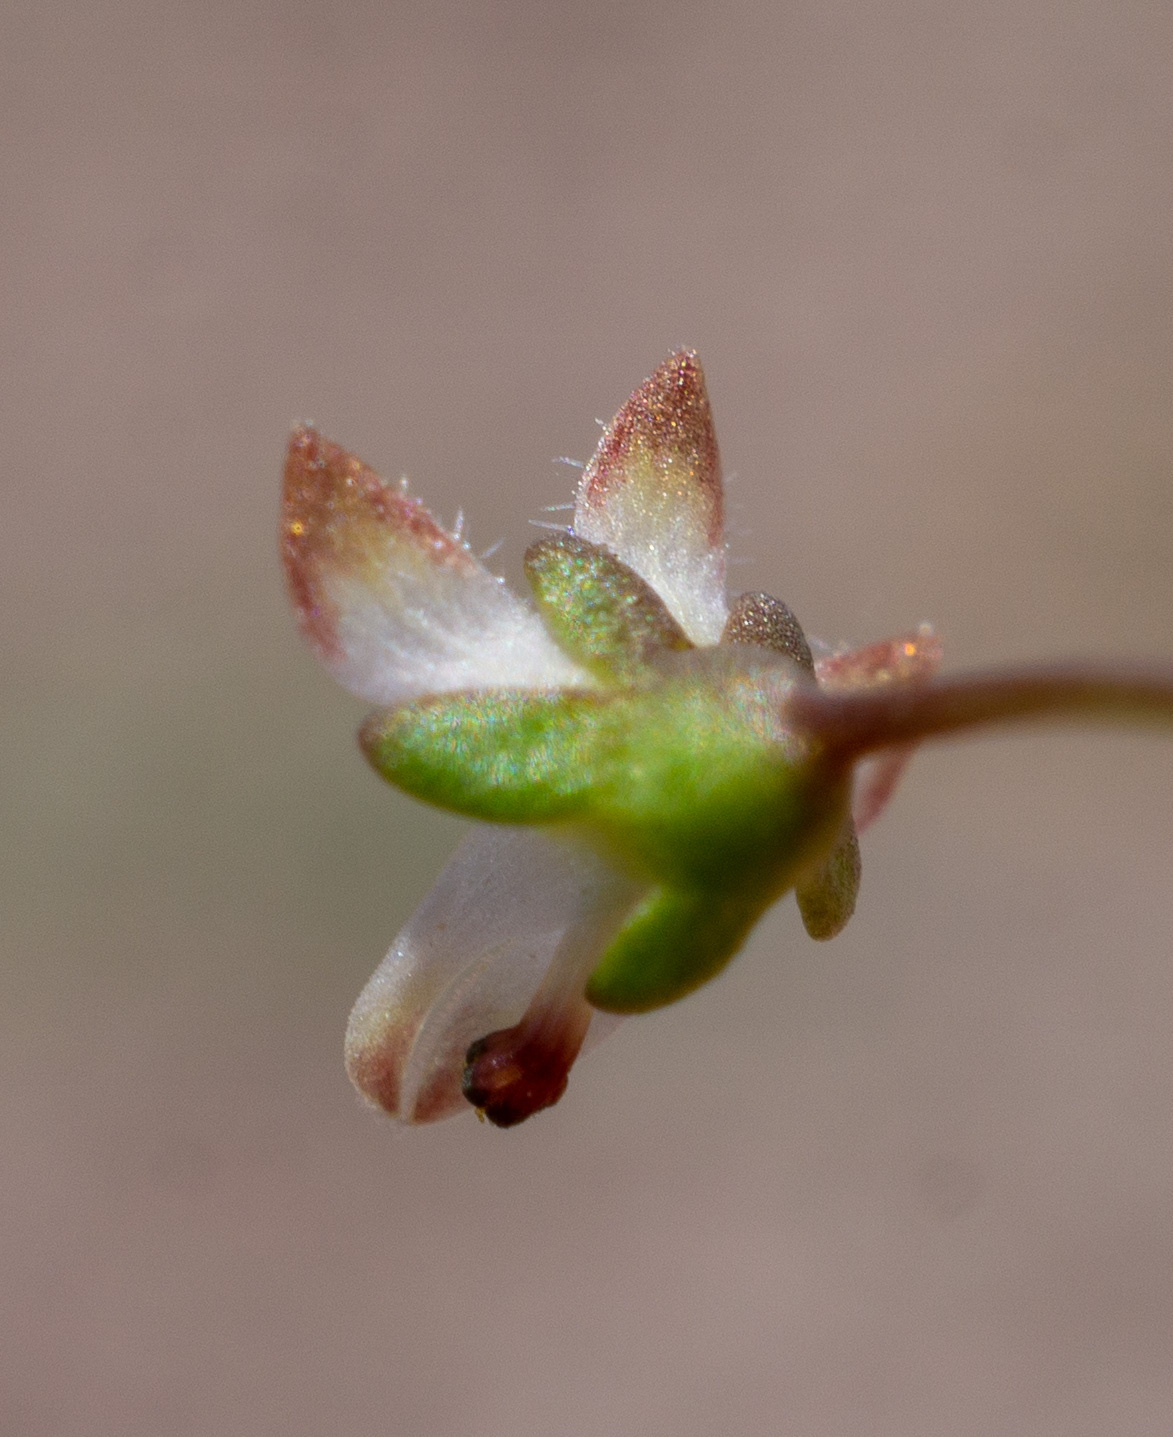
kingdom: Plantae
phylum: Tracheophyta
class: Magnoliopsida
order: Asterales
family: Campanulaceae
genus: Nemacladus
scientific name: Nemacladus morefieldii
